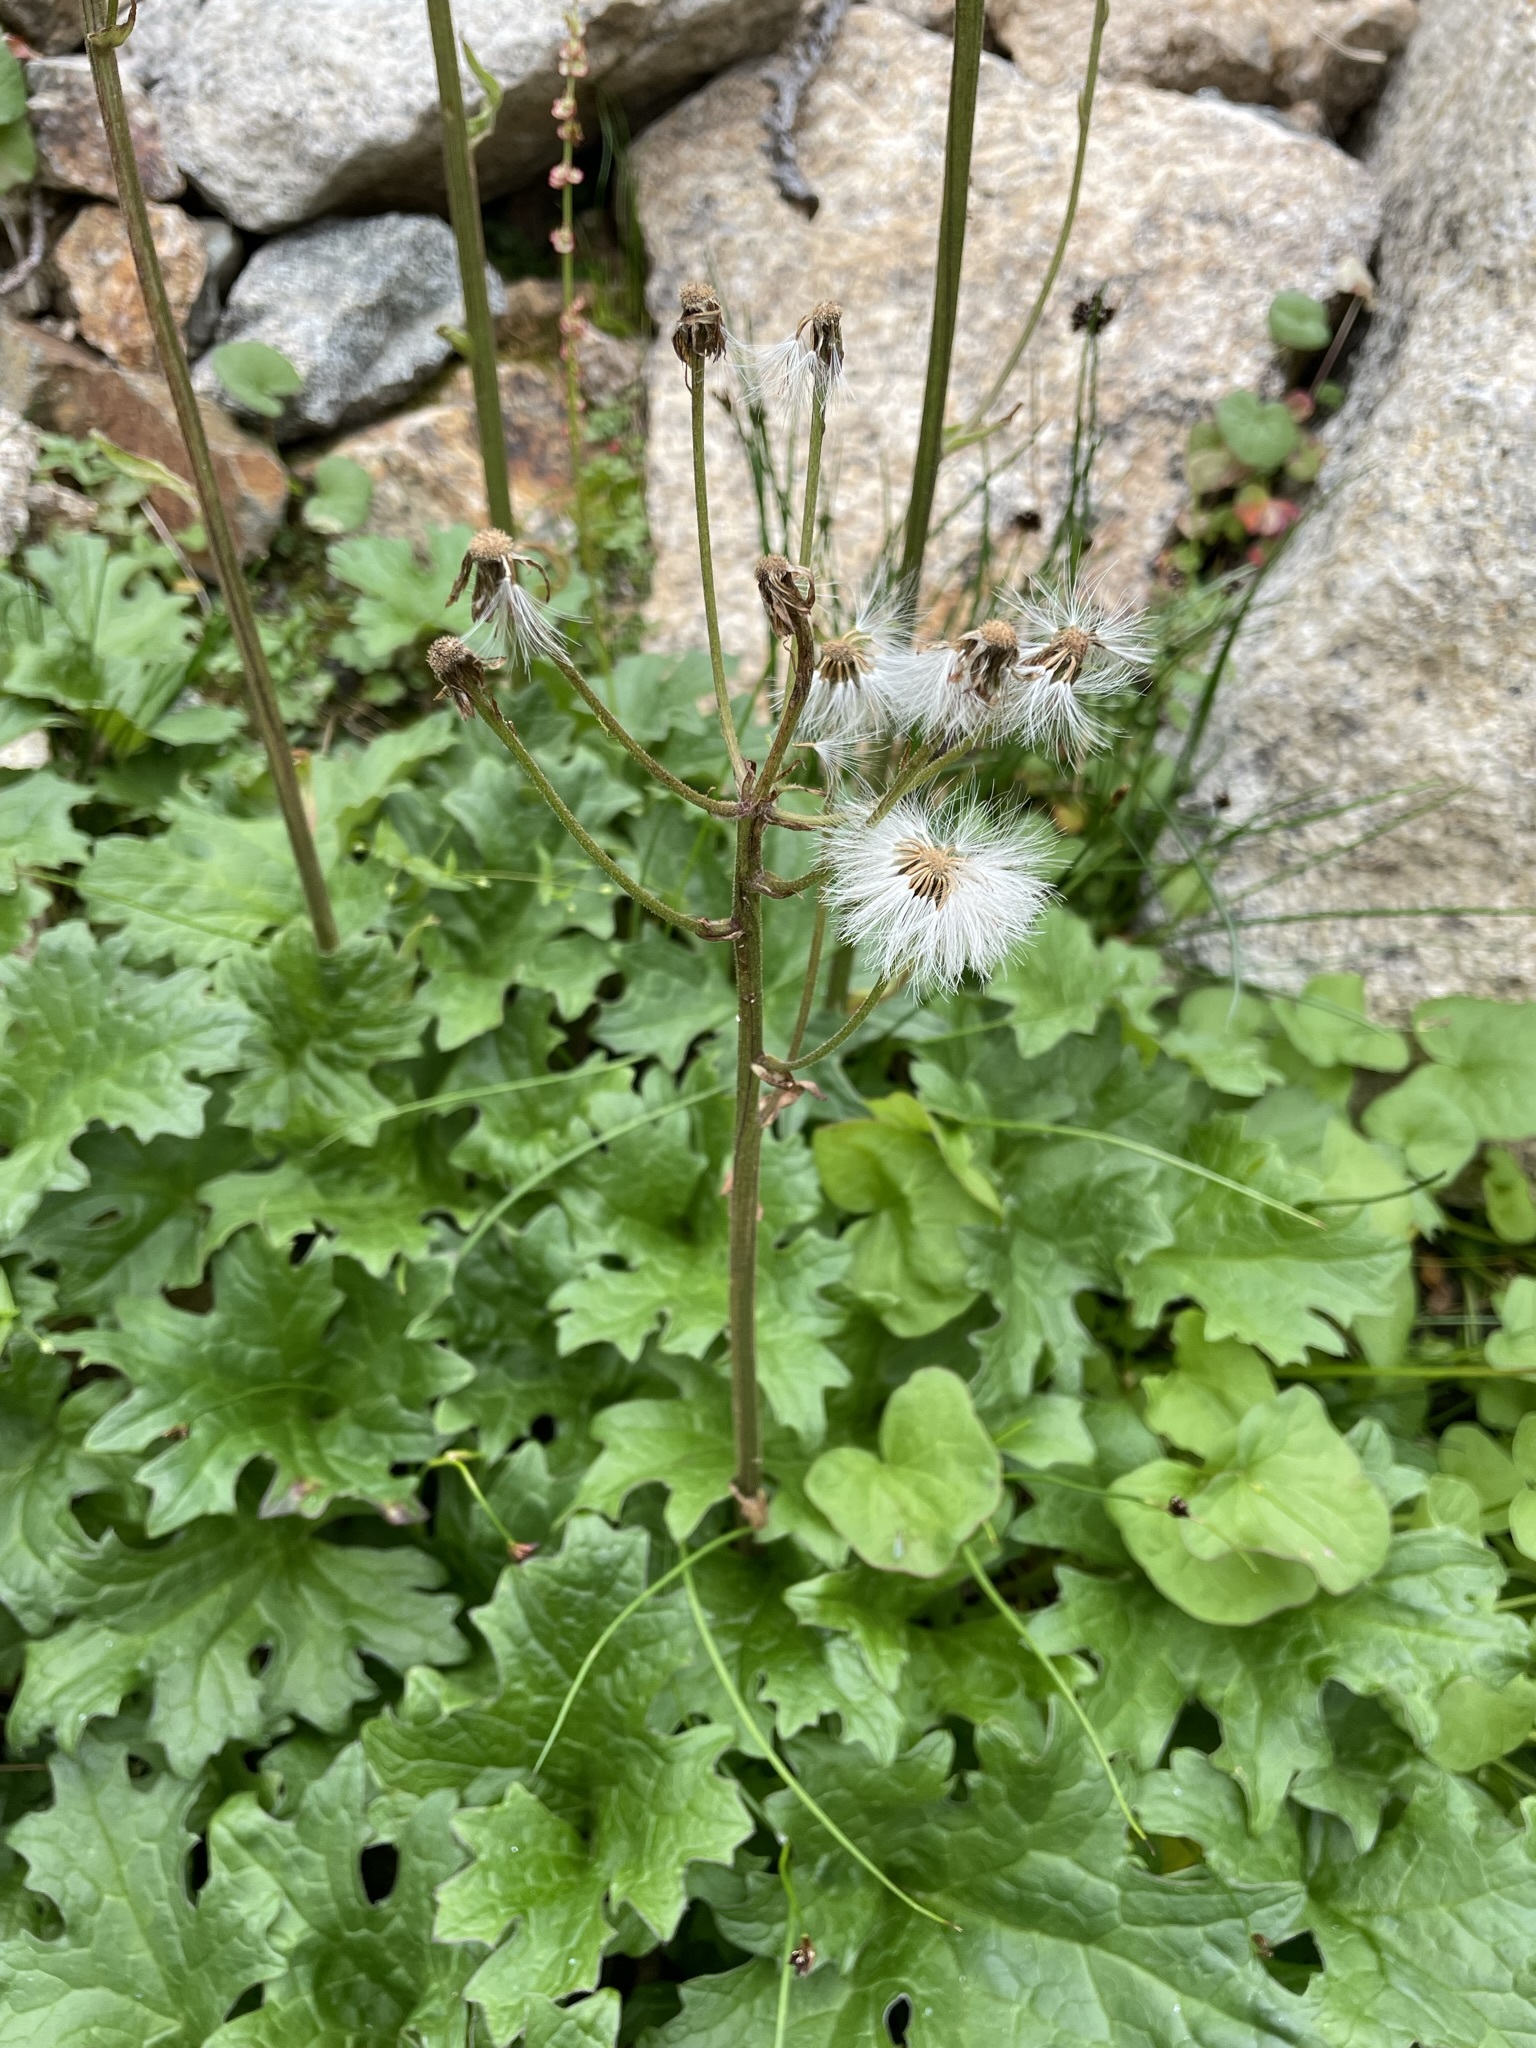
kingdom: Plantae
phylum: Tracheophyta
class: Magnoliopsida
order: Asterales
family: Asteraceae
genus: Petasites
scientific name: Petasites frigidus
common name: Arctic butterbur
